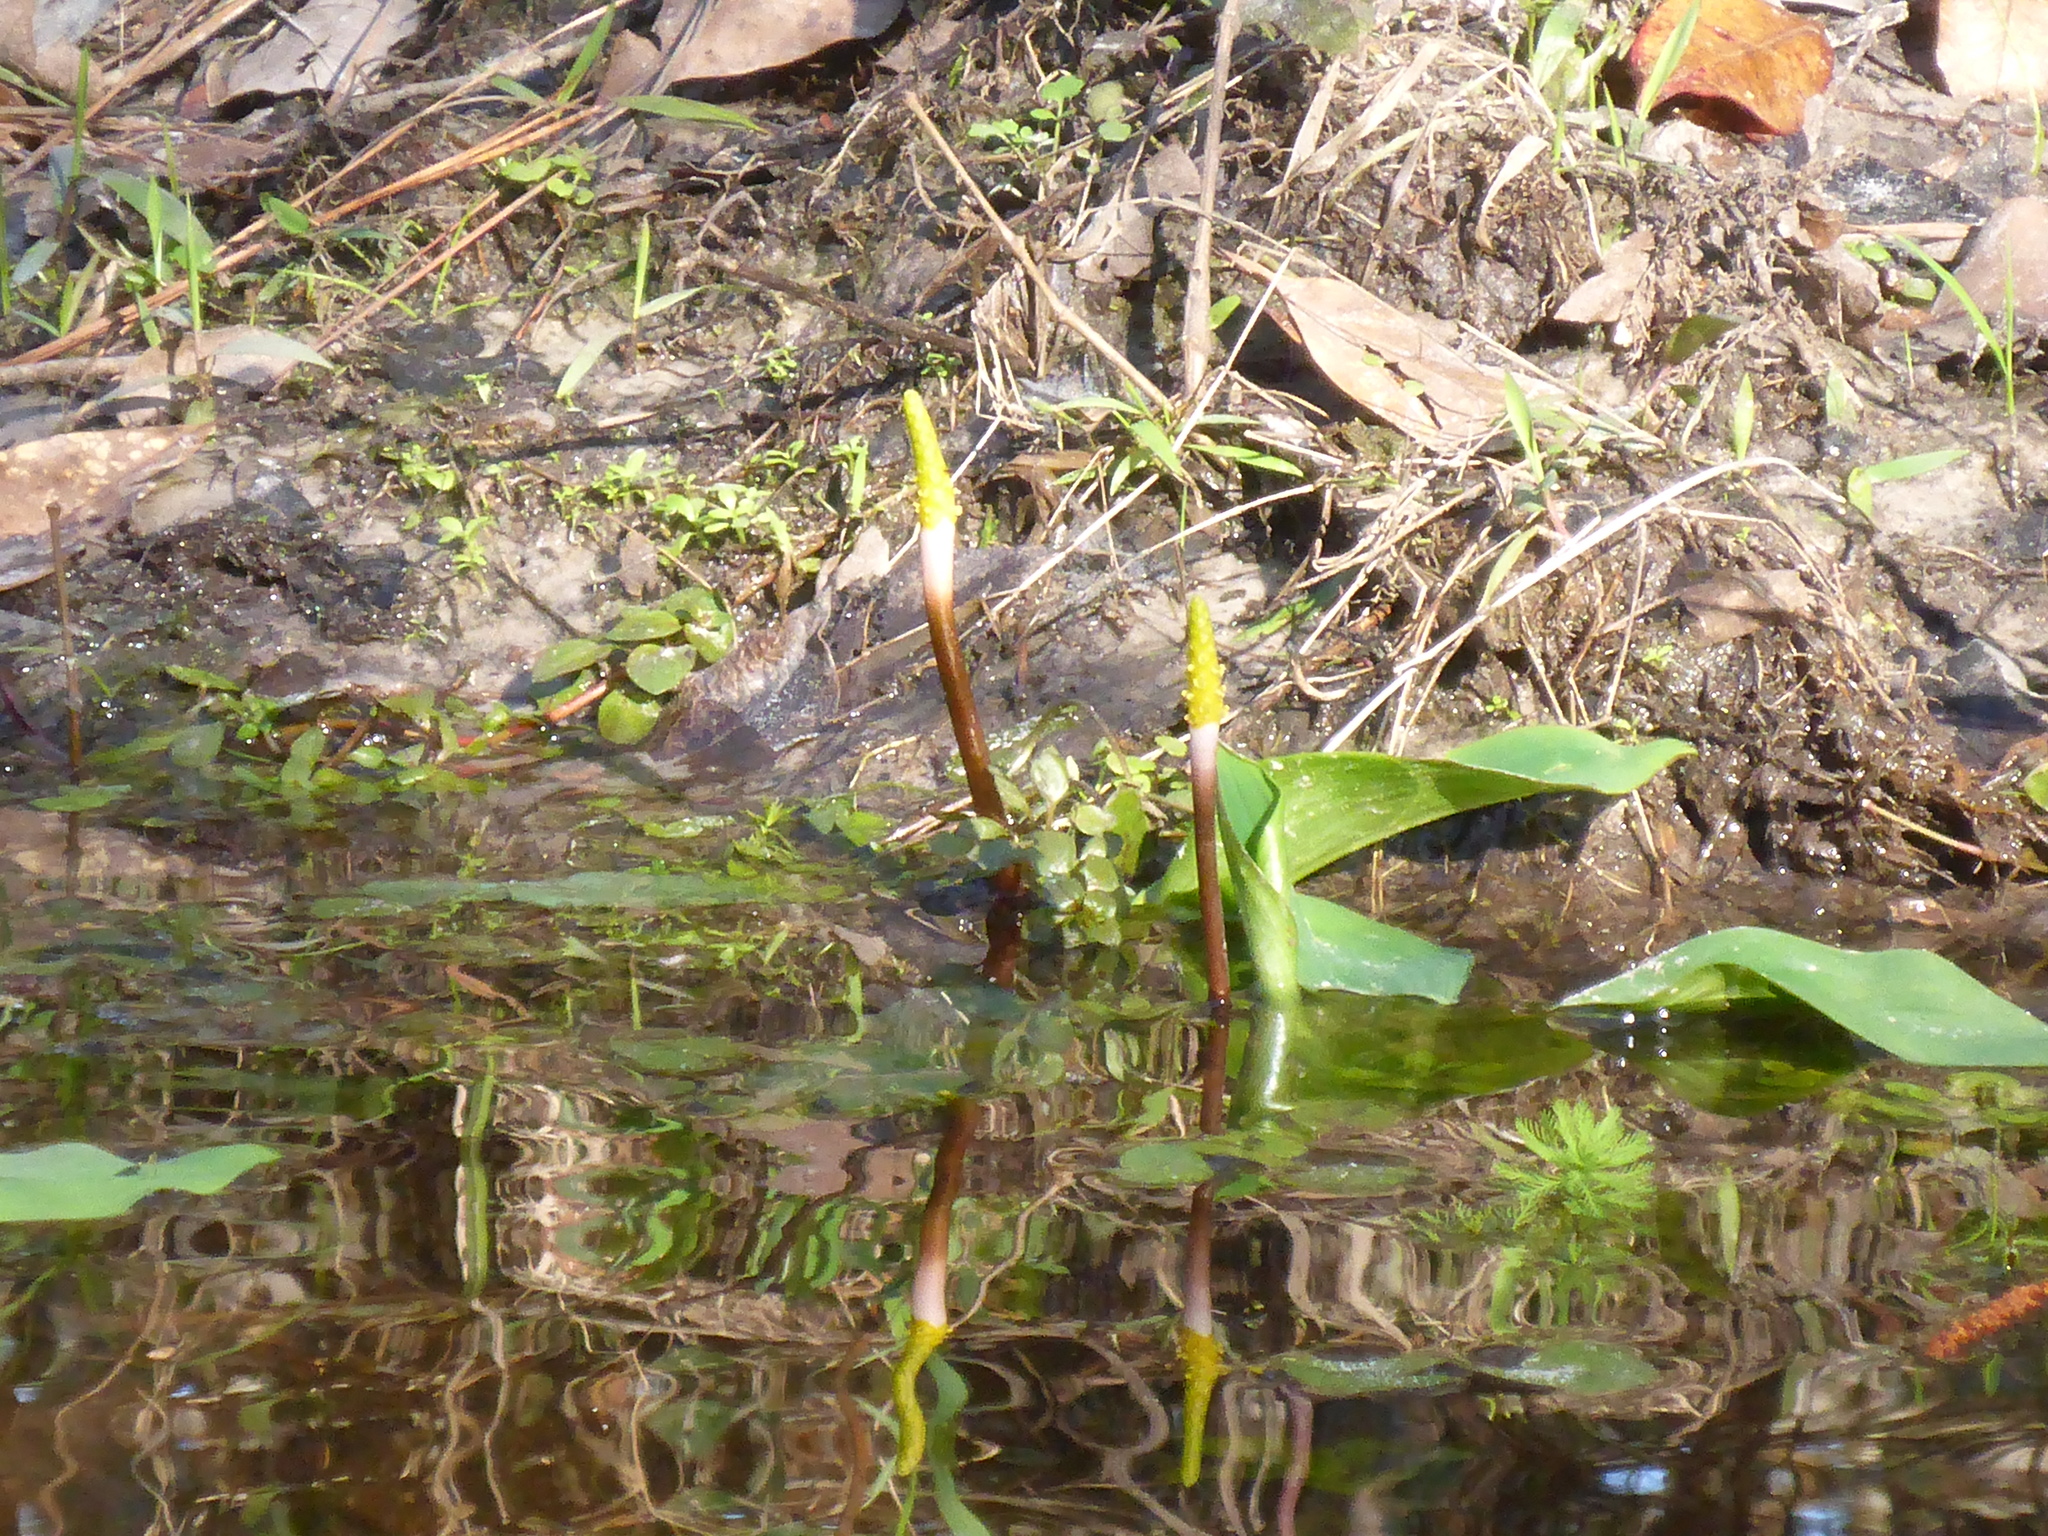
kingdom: Plantae
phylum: Tracheophyta
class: Liliopsida
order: Alismatales
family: Araceae
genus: Orontium
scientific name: Orontium aquaticum
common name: Golden-club
